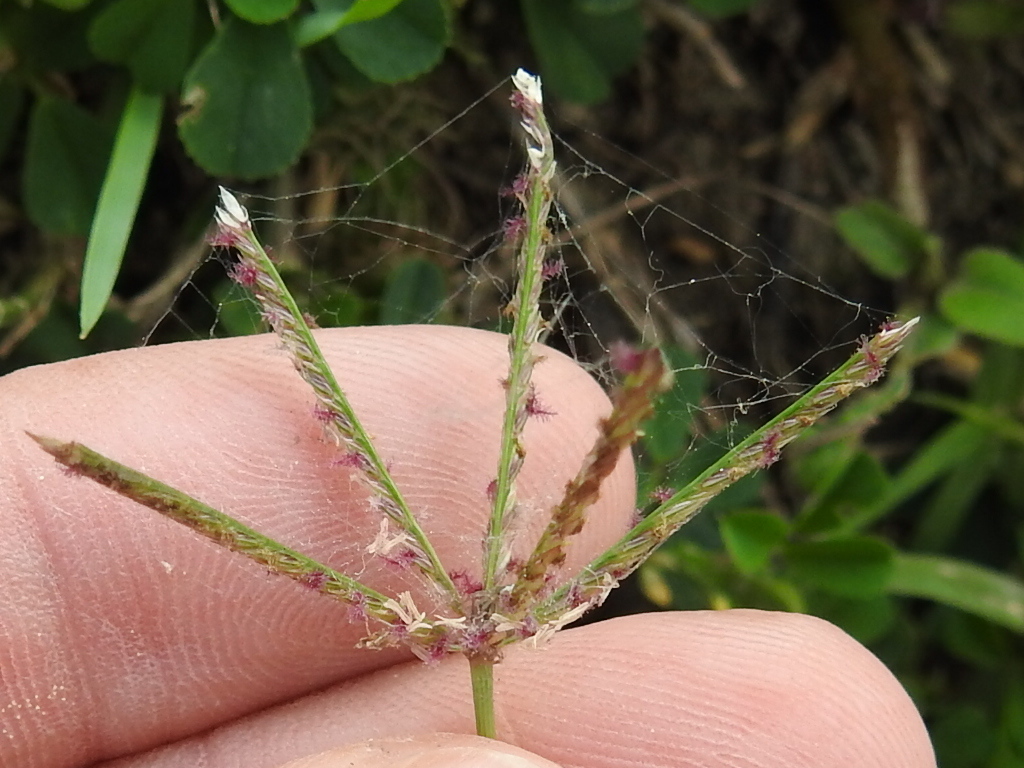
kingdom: Plantae
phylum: Tracheophyta
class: Liliopsida
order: Poales
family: Poaceae
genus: Cynodon
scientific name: Cynodon dactylon
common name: Bermuda grass
